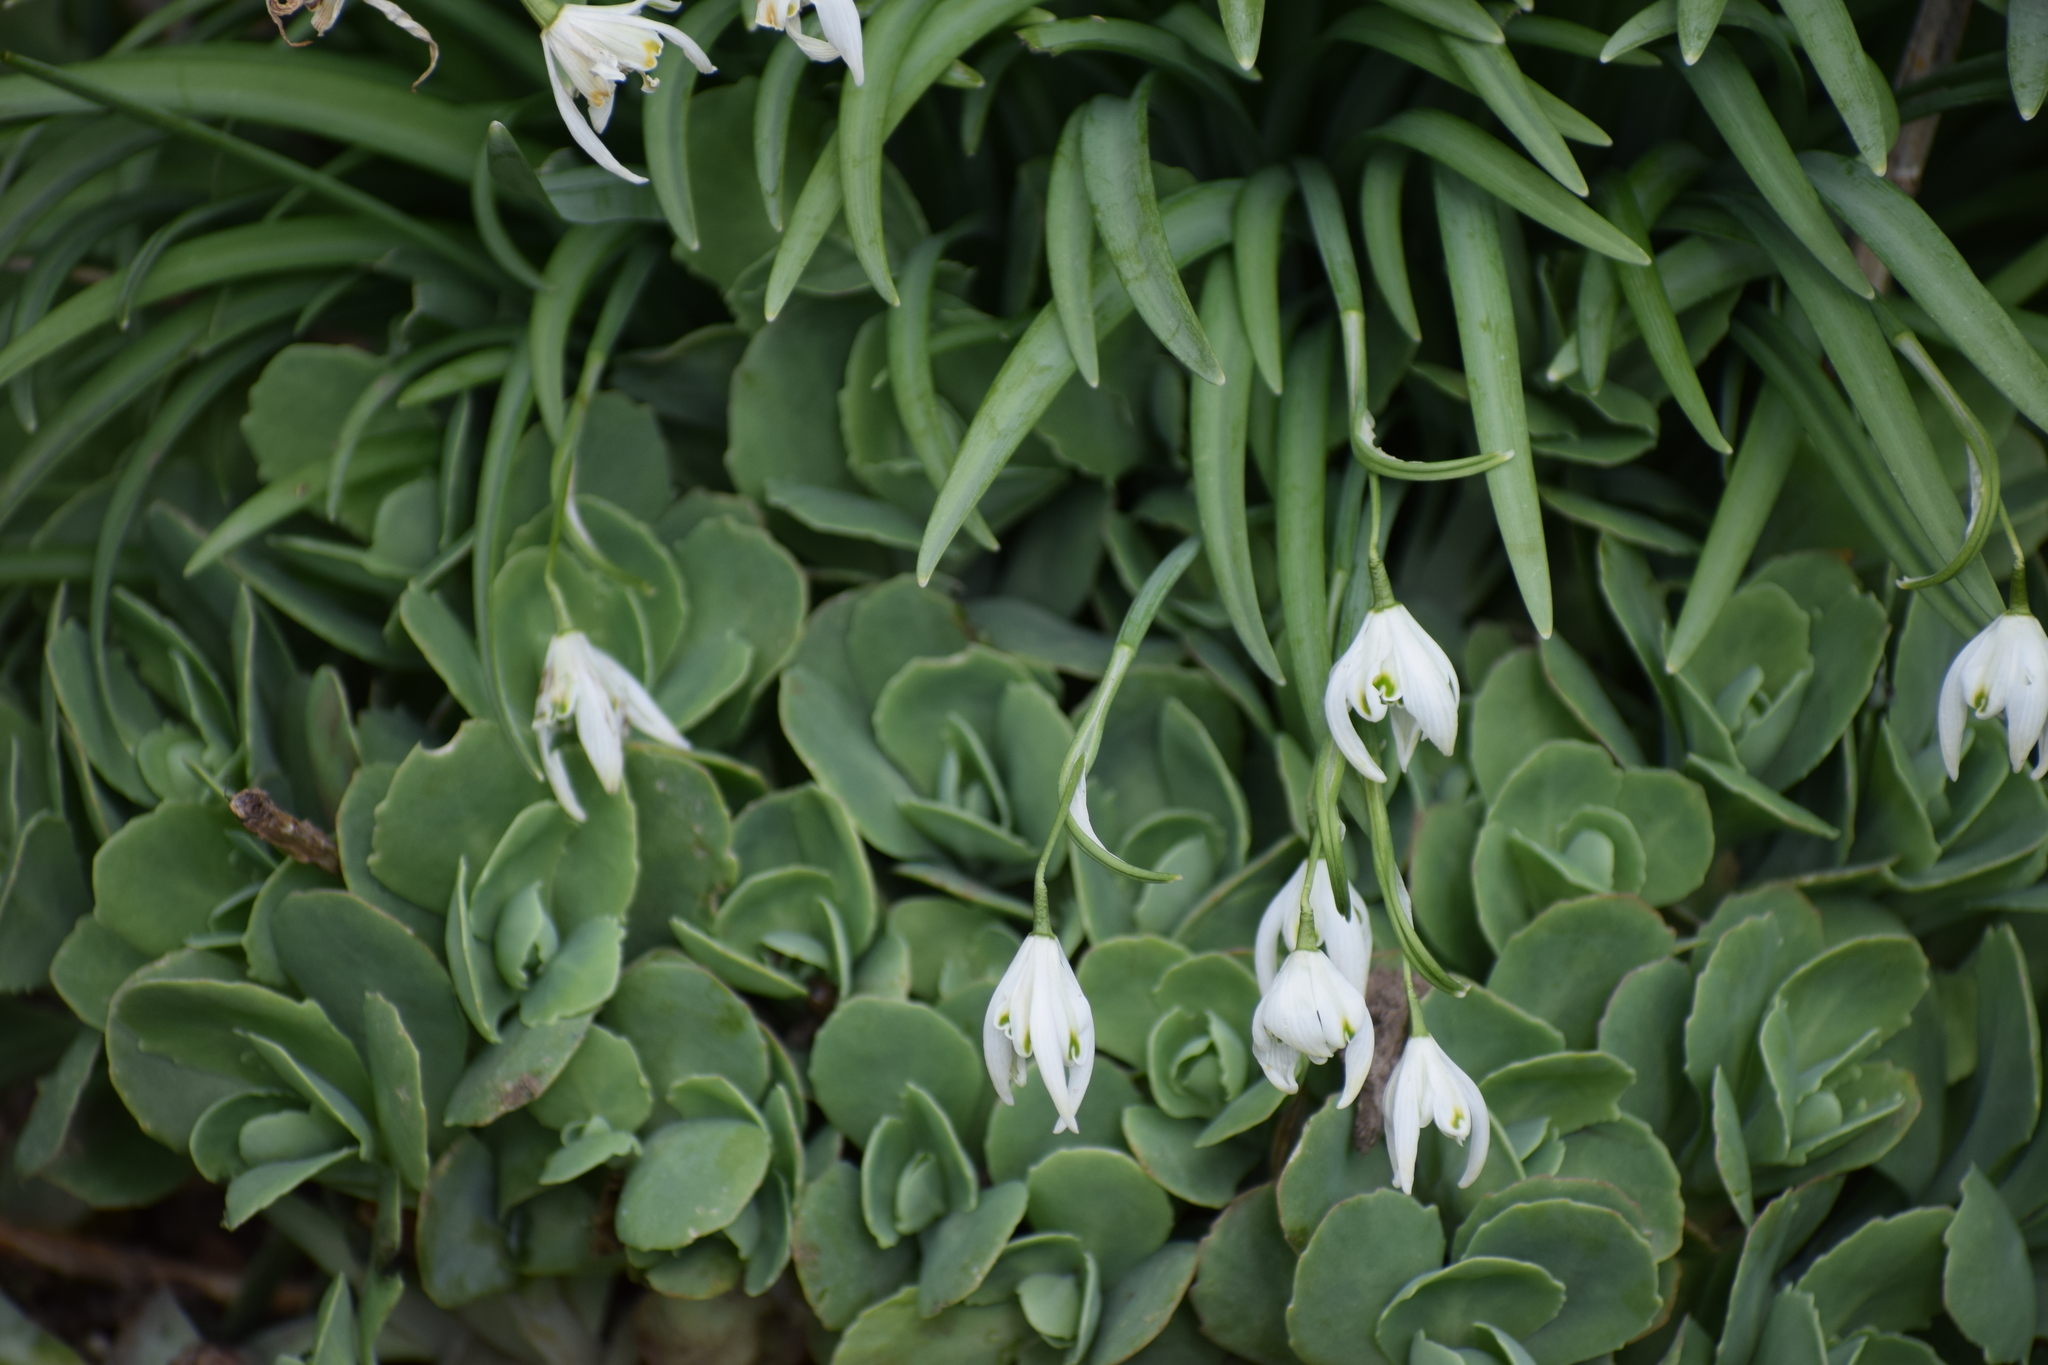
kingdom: Plantae
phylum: Tracheophyta
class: Liliopsida
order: Asparagales
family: Amaryllidaceae
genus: Galanthus
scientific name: Galanthus nivalis
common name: Snowdrop
